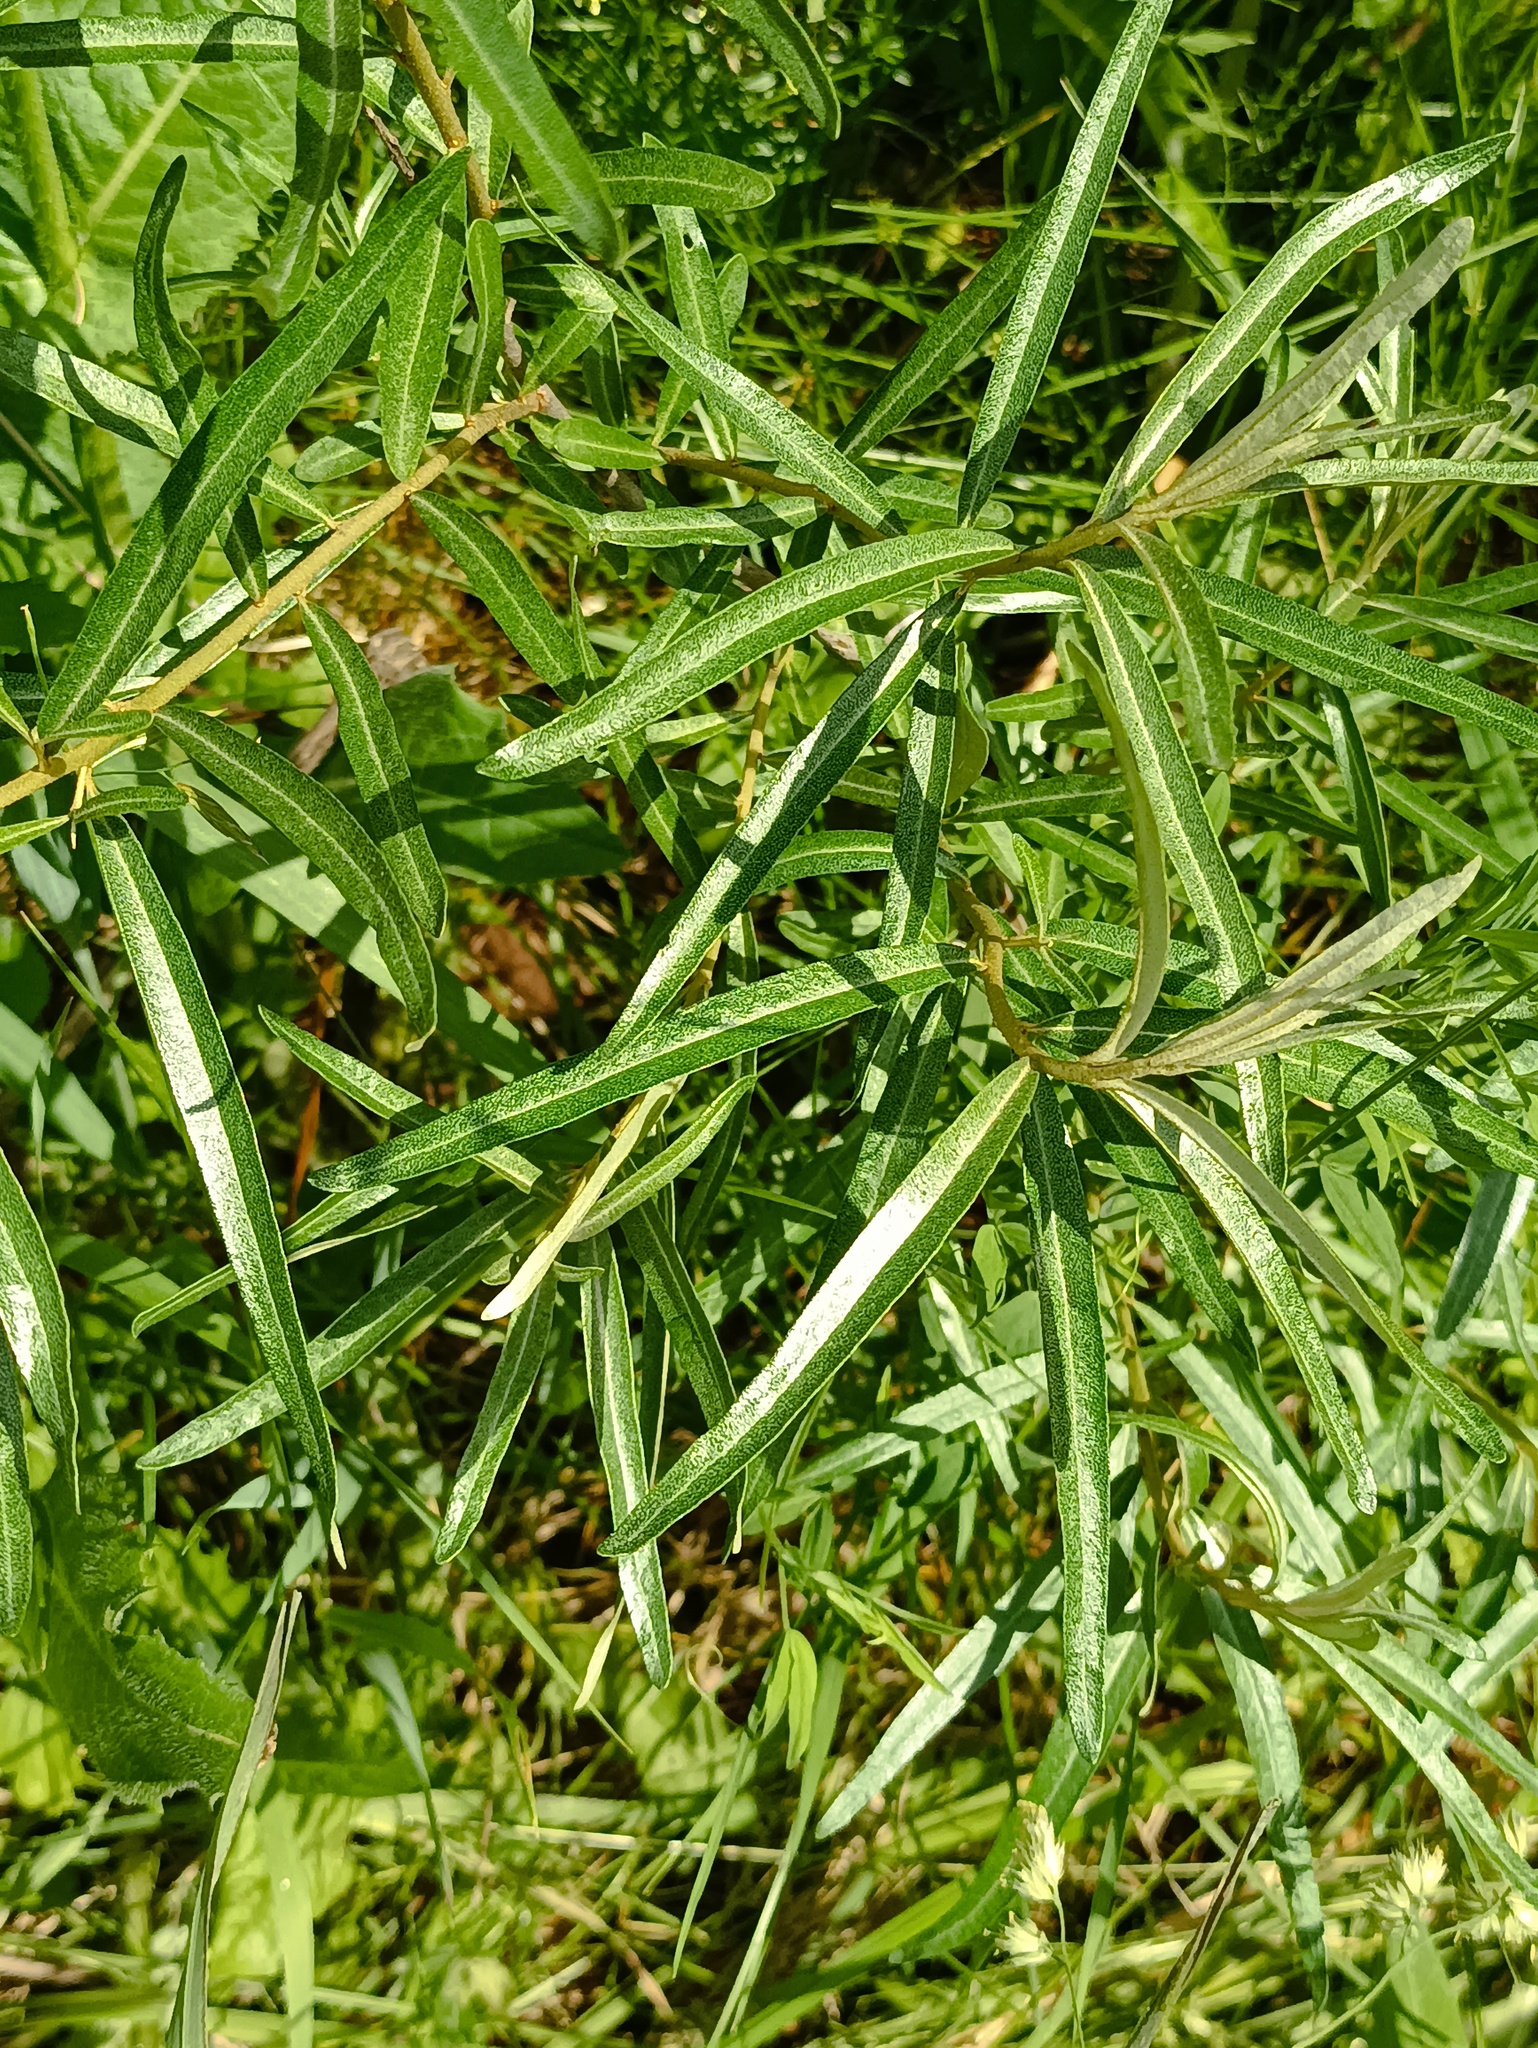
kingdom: Plantae
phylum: Tracheophyta
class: Magnoliopsida
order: Rosales
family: Elaeagnaceae
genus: Hippophae
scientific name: Hippophae rhamnoides
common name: Sea-buckthorn
